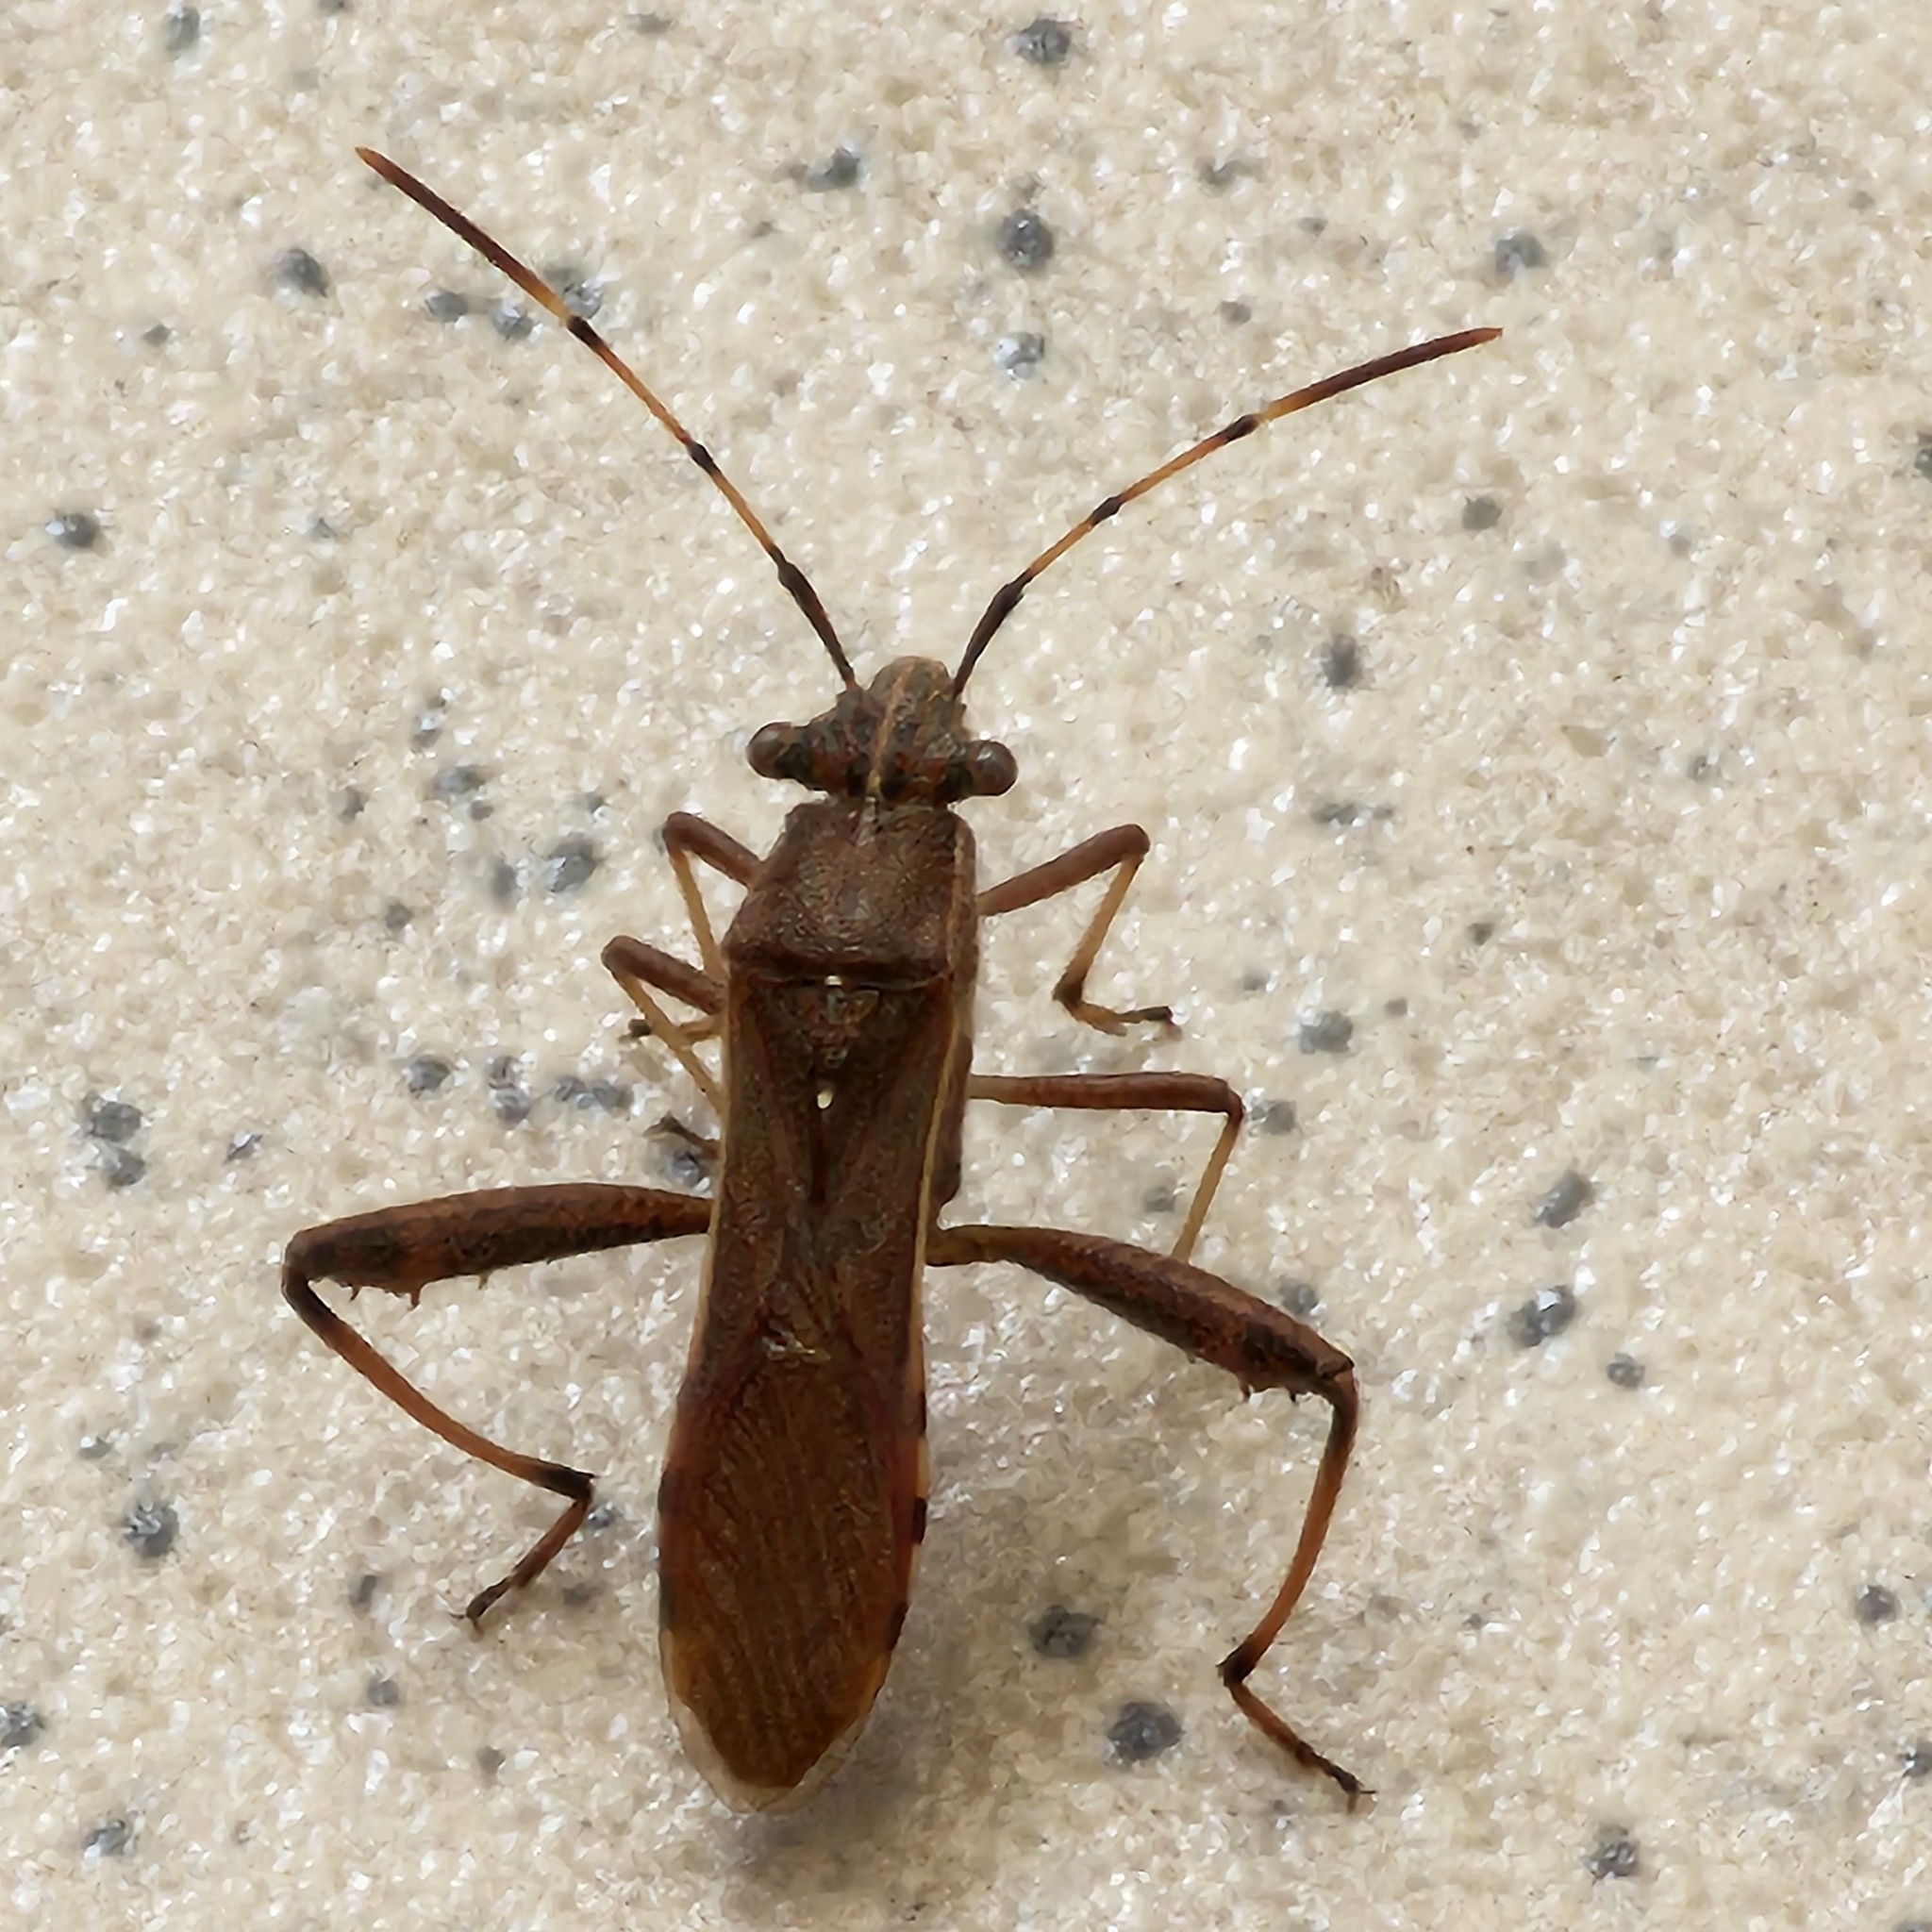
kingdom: Animalia
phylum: Arthropoda
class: Insecta
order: Hemiptera
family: Alydidae
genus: Camptopus
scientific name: Camptopus lateralis
